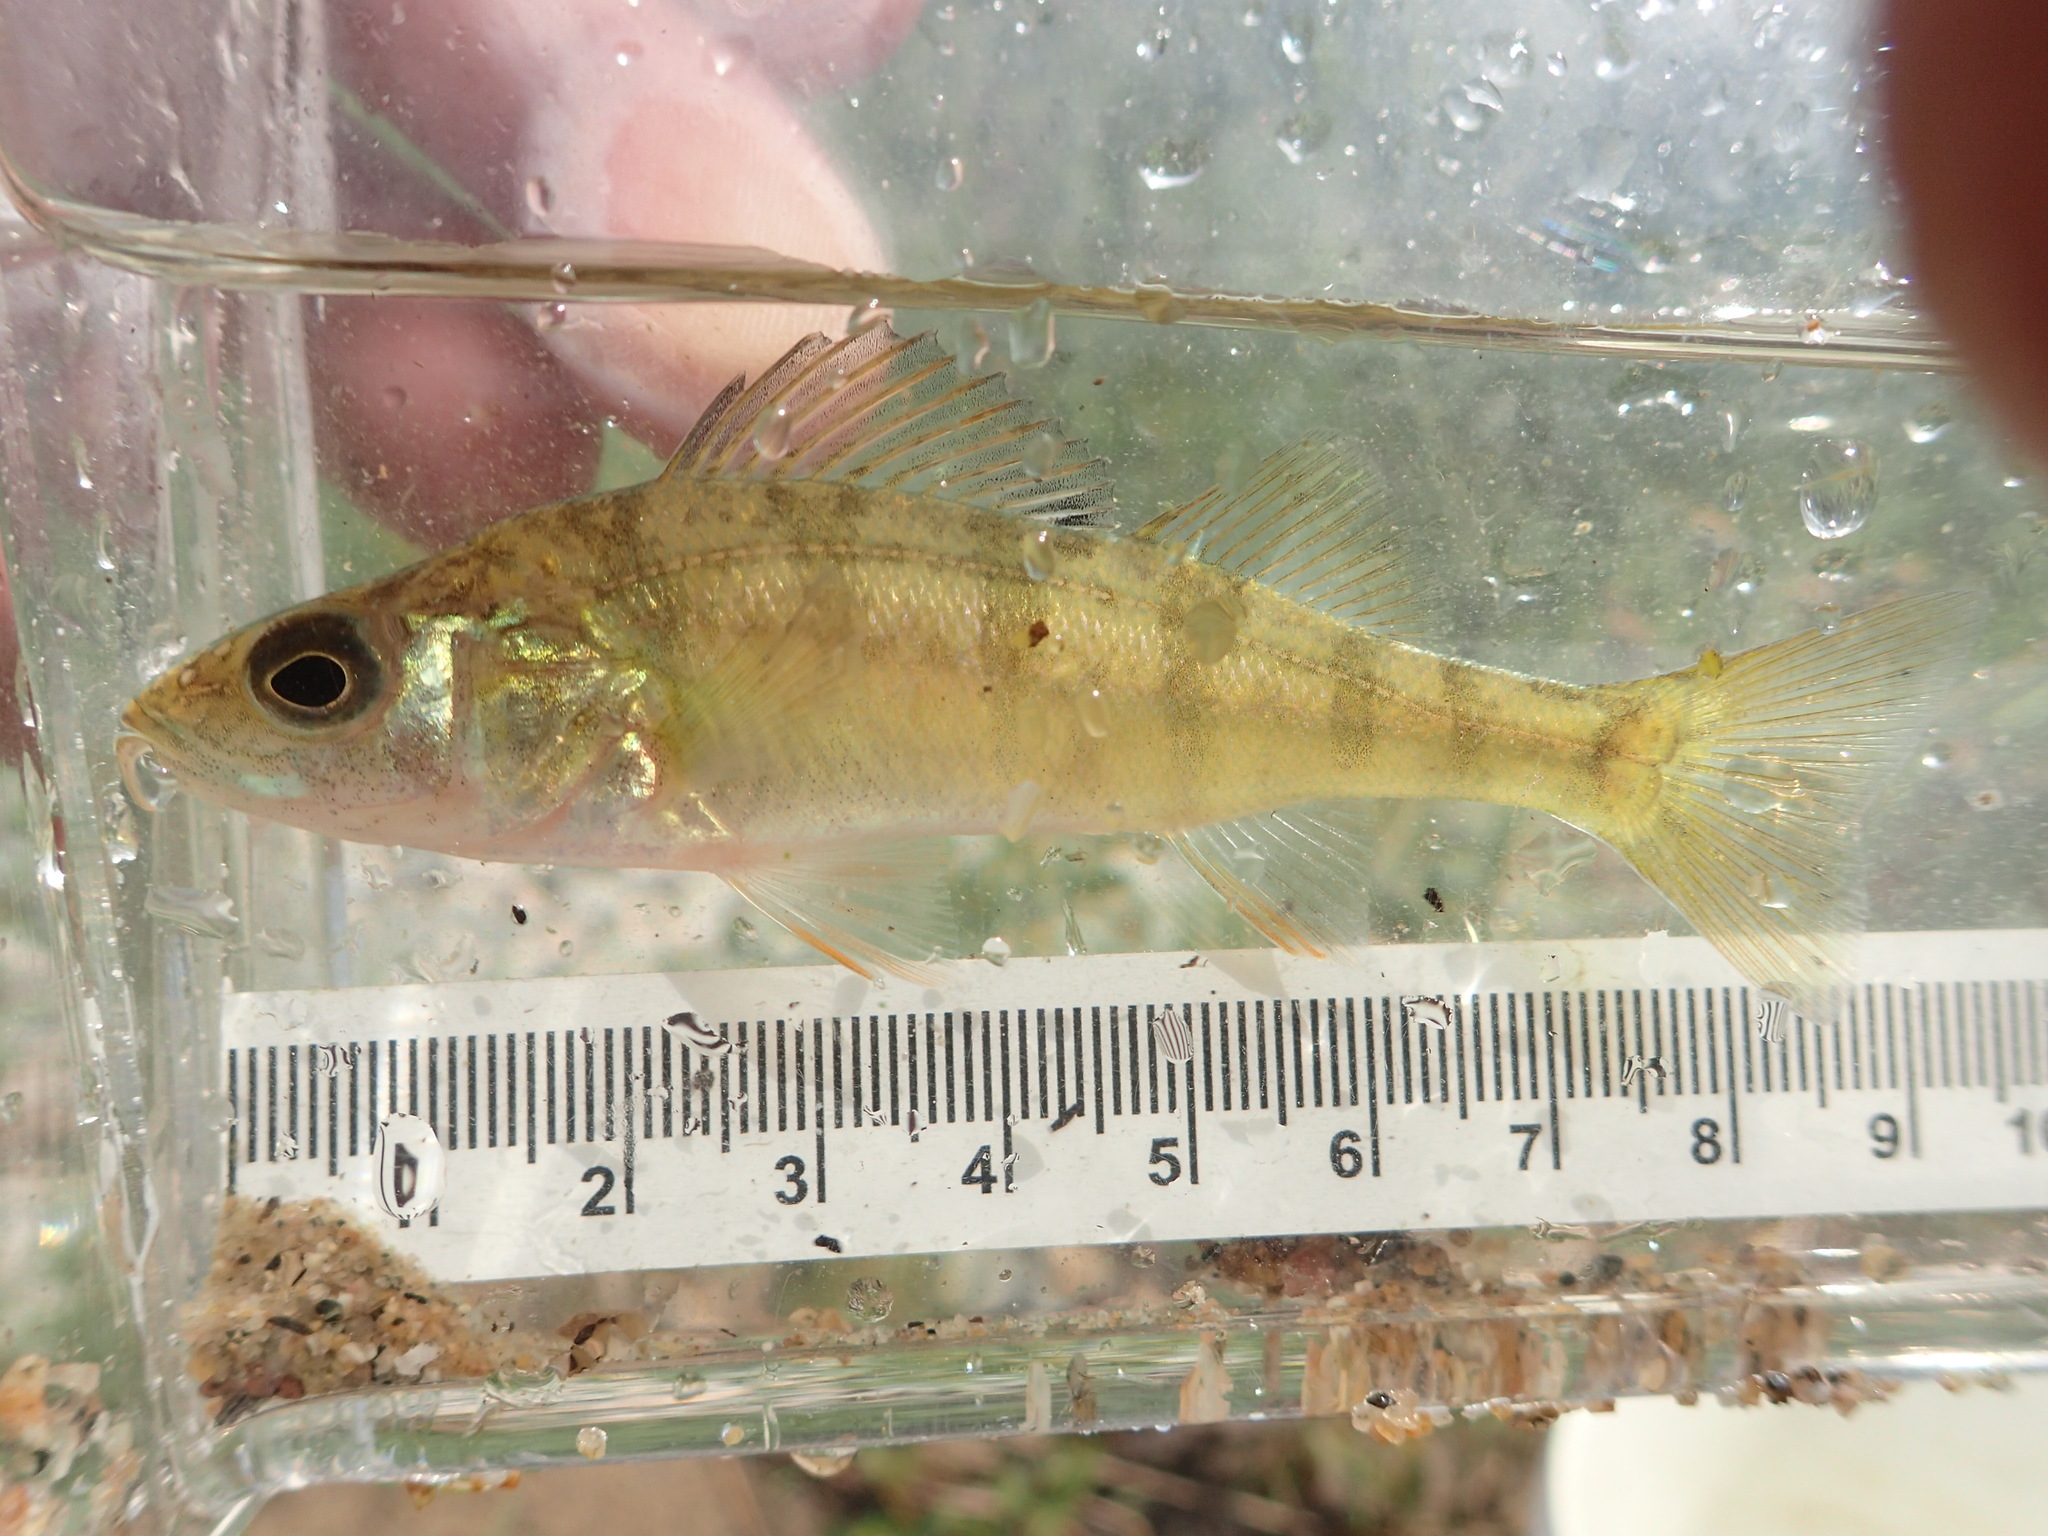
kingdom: Animalia
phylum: Chordata
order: Perciformes
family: Percidae
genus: Perca
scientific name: Perca flavescens
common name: Yellow perch
